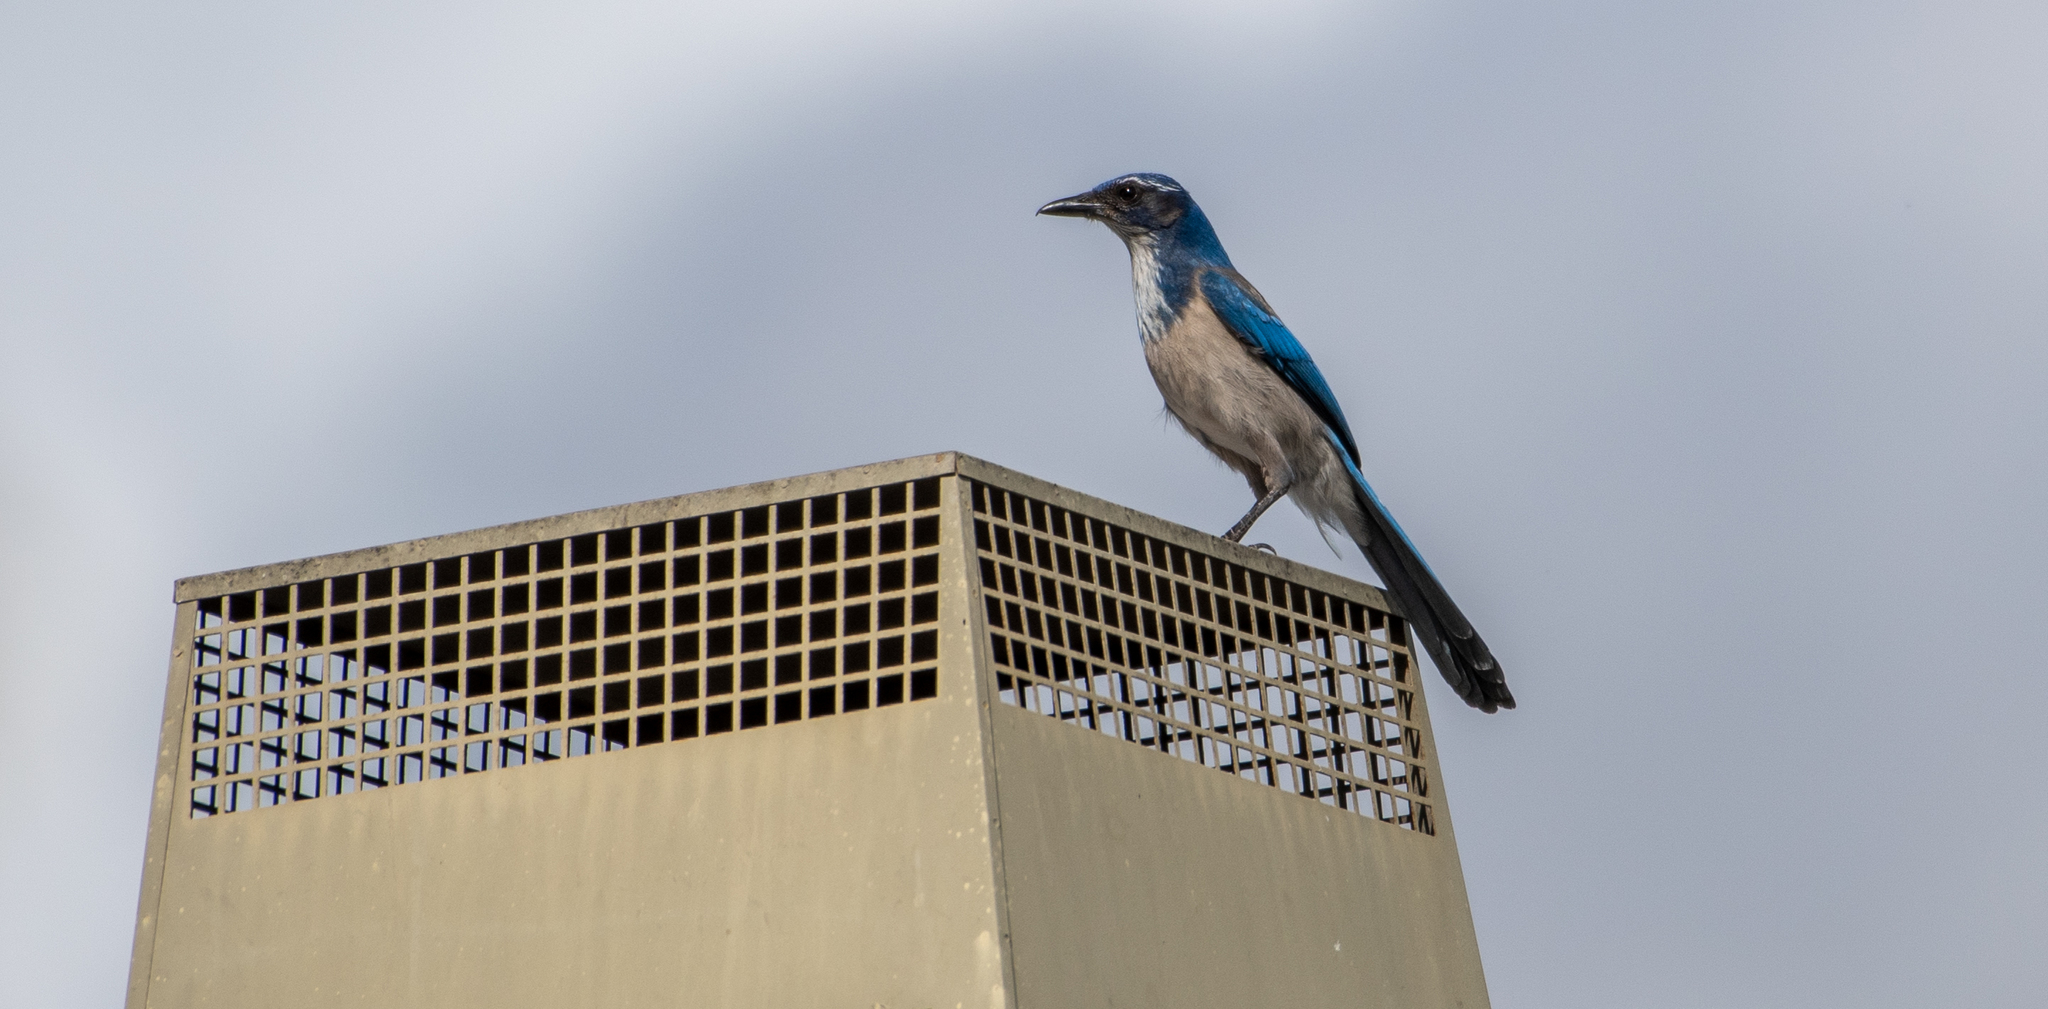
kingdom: Animalia
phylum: Chordata
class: Aves
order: Passeriformes
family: Corvidae
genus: Aphelocoma
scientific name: Aphelocoma californica
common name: California scrub-jay
